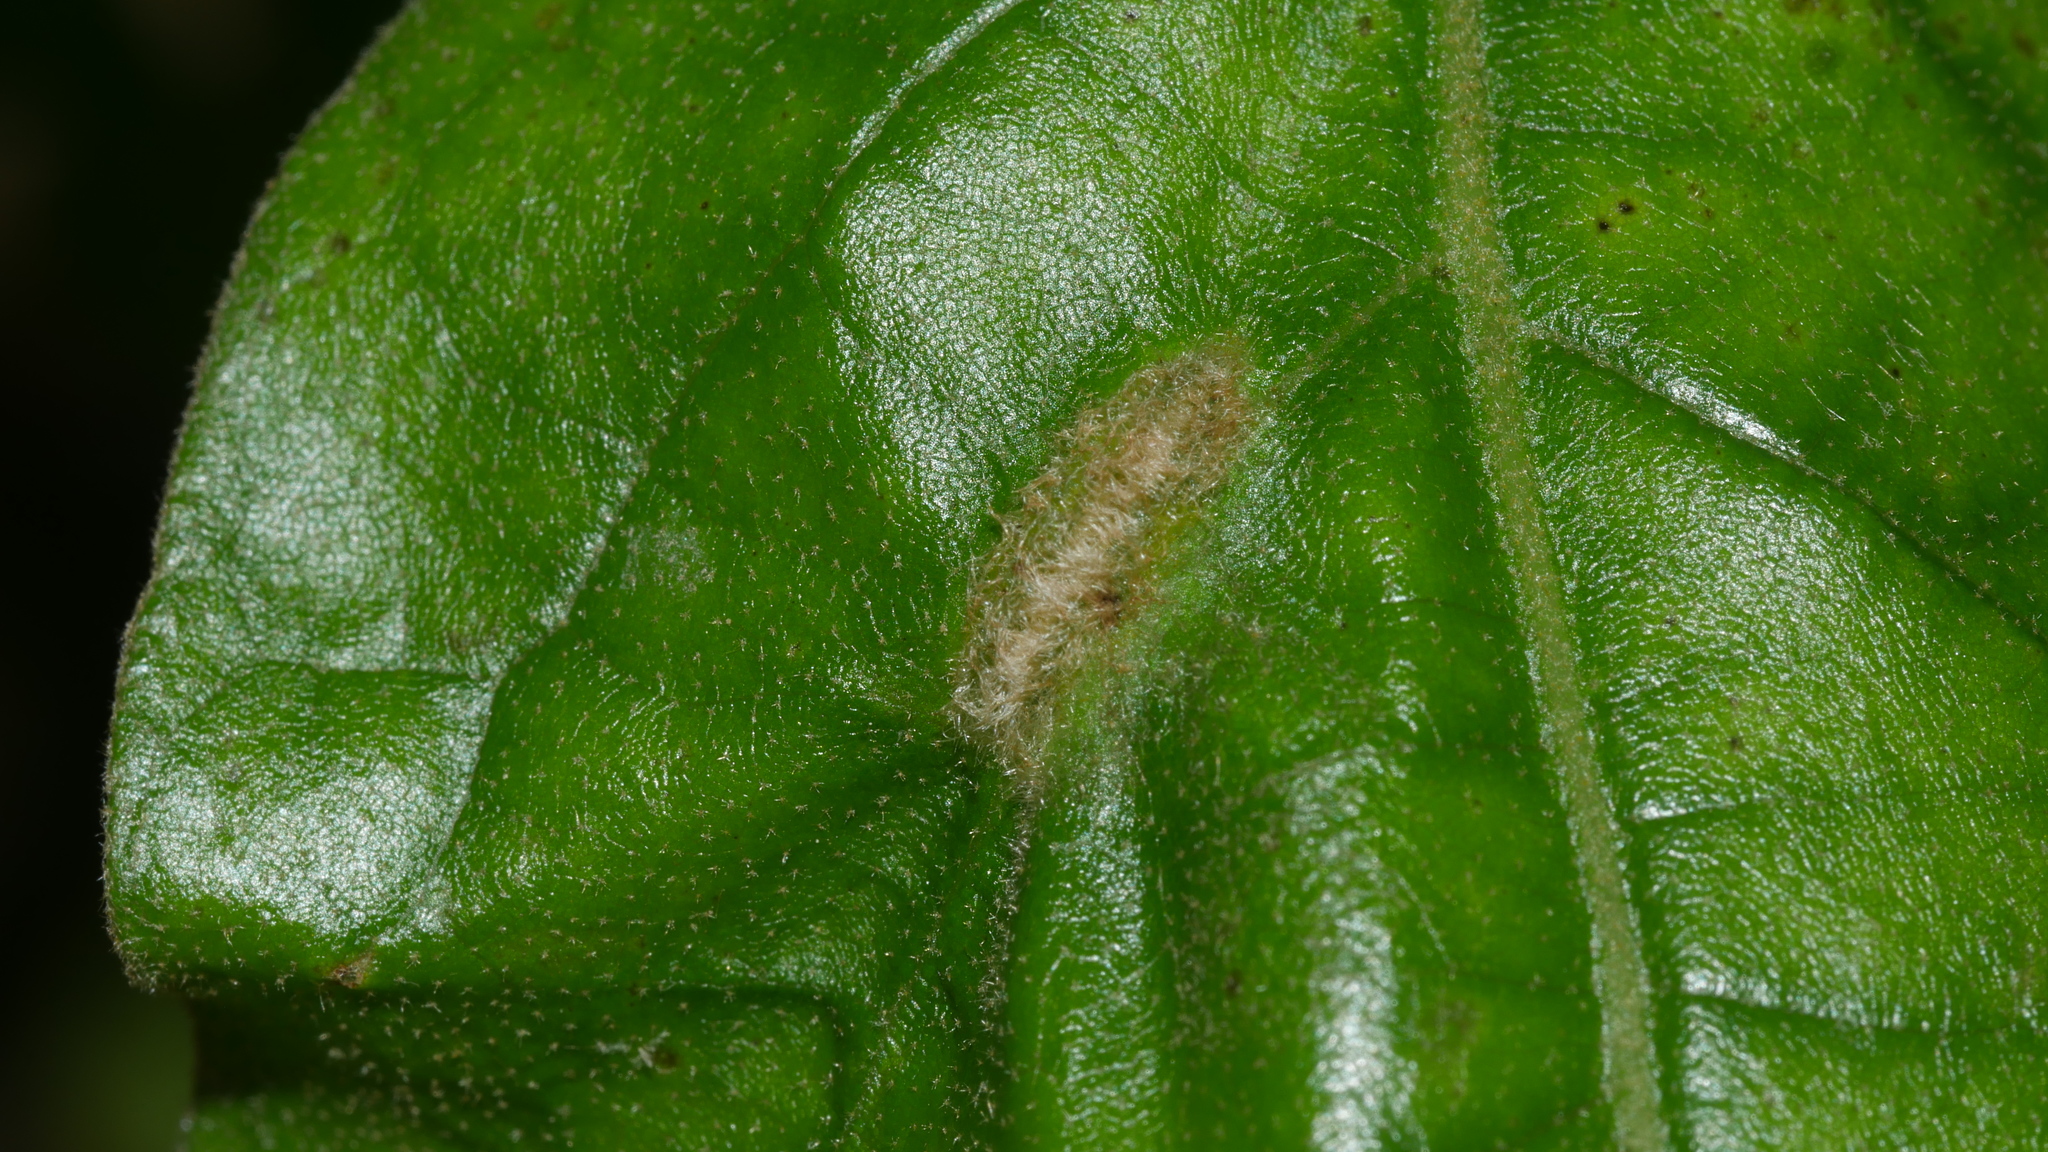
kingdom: Animalia
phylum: Arthropoda
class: Insecta
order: Diptera
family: Cecidomyiidae
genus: Macrodiplosis
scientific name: Macrodiplosis niveipila
